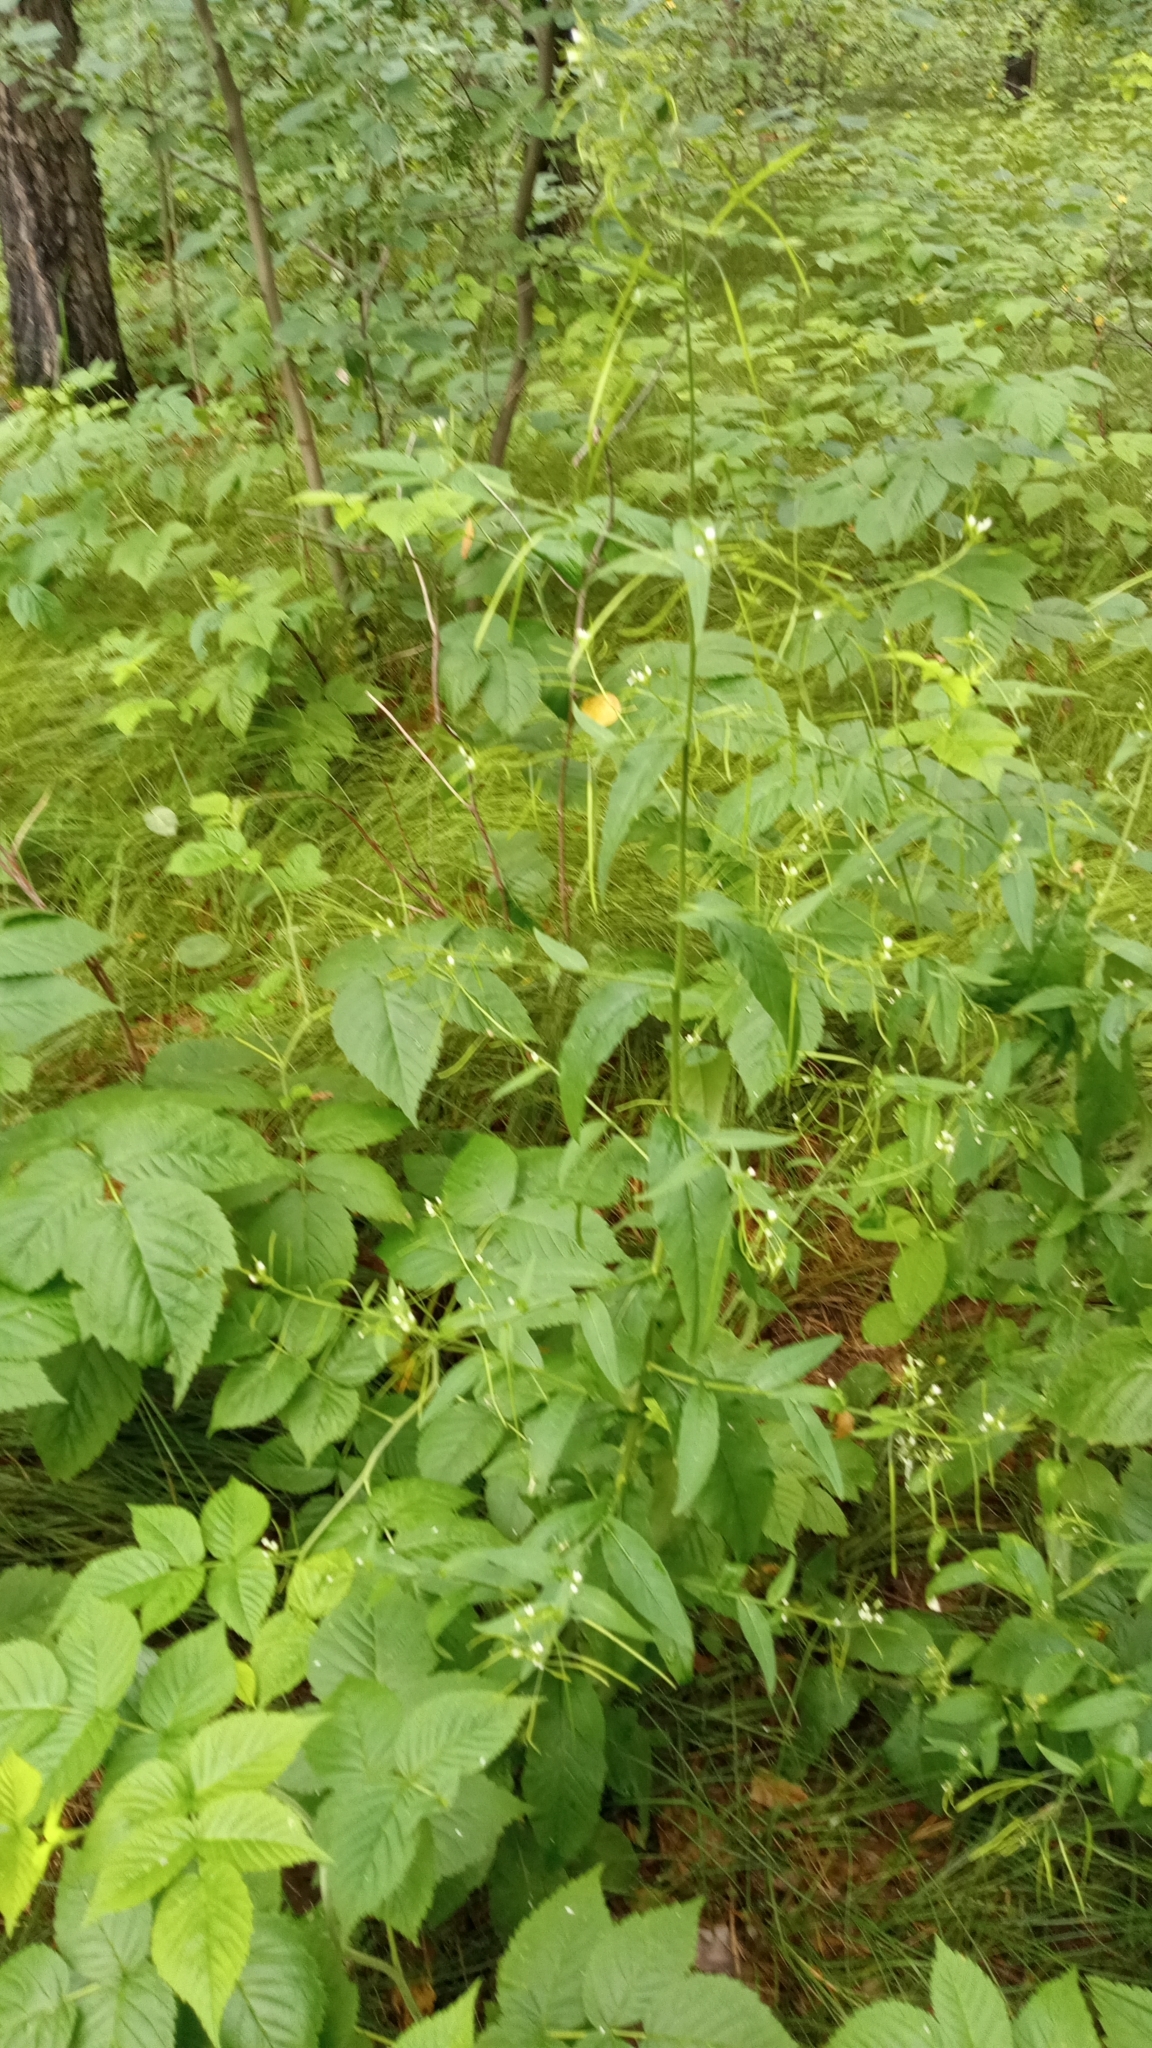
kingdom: Plantae
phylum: Tracheophyta
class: Magnoliopsida
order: Brassicales
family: Brassicaceae
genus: Catolobus
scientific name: Catolobus pendulus
